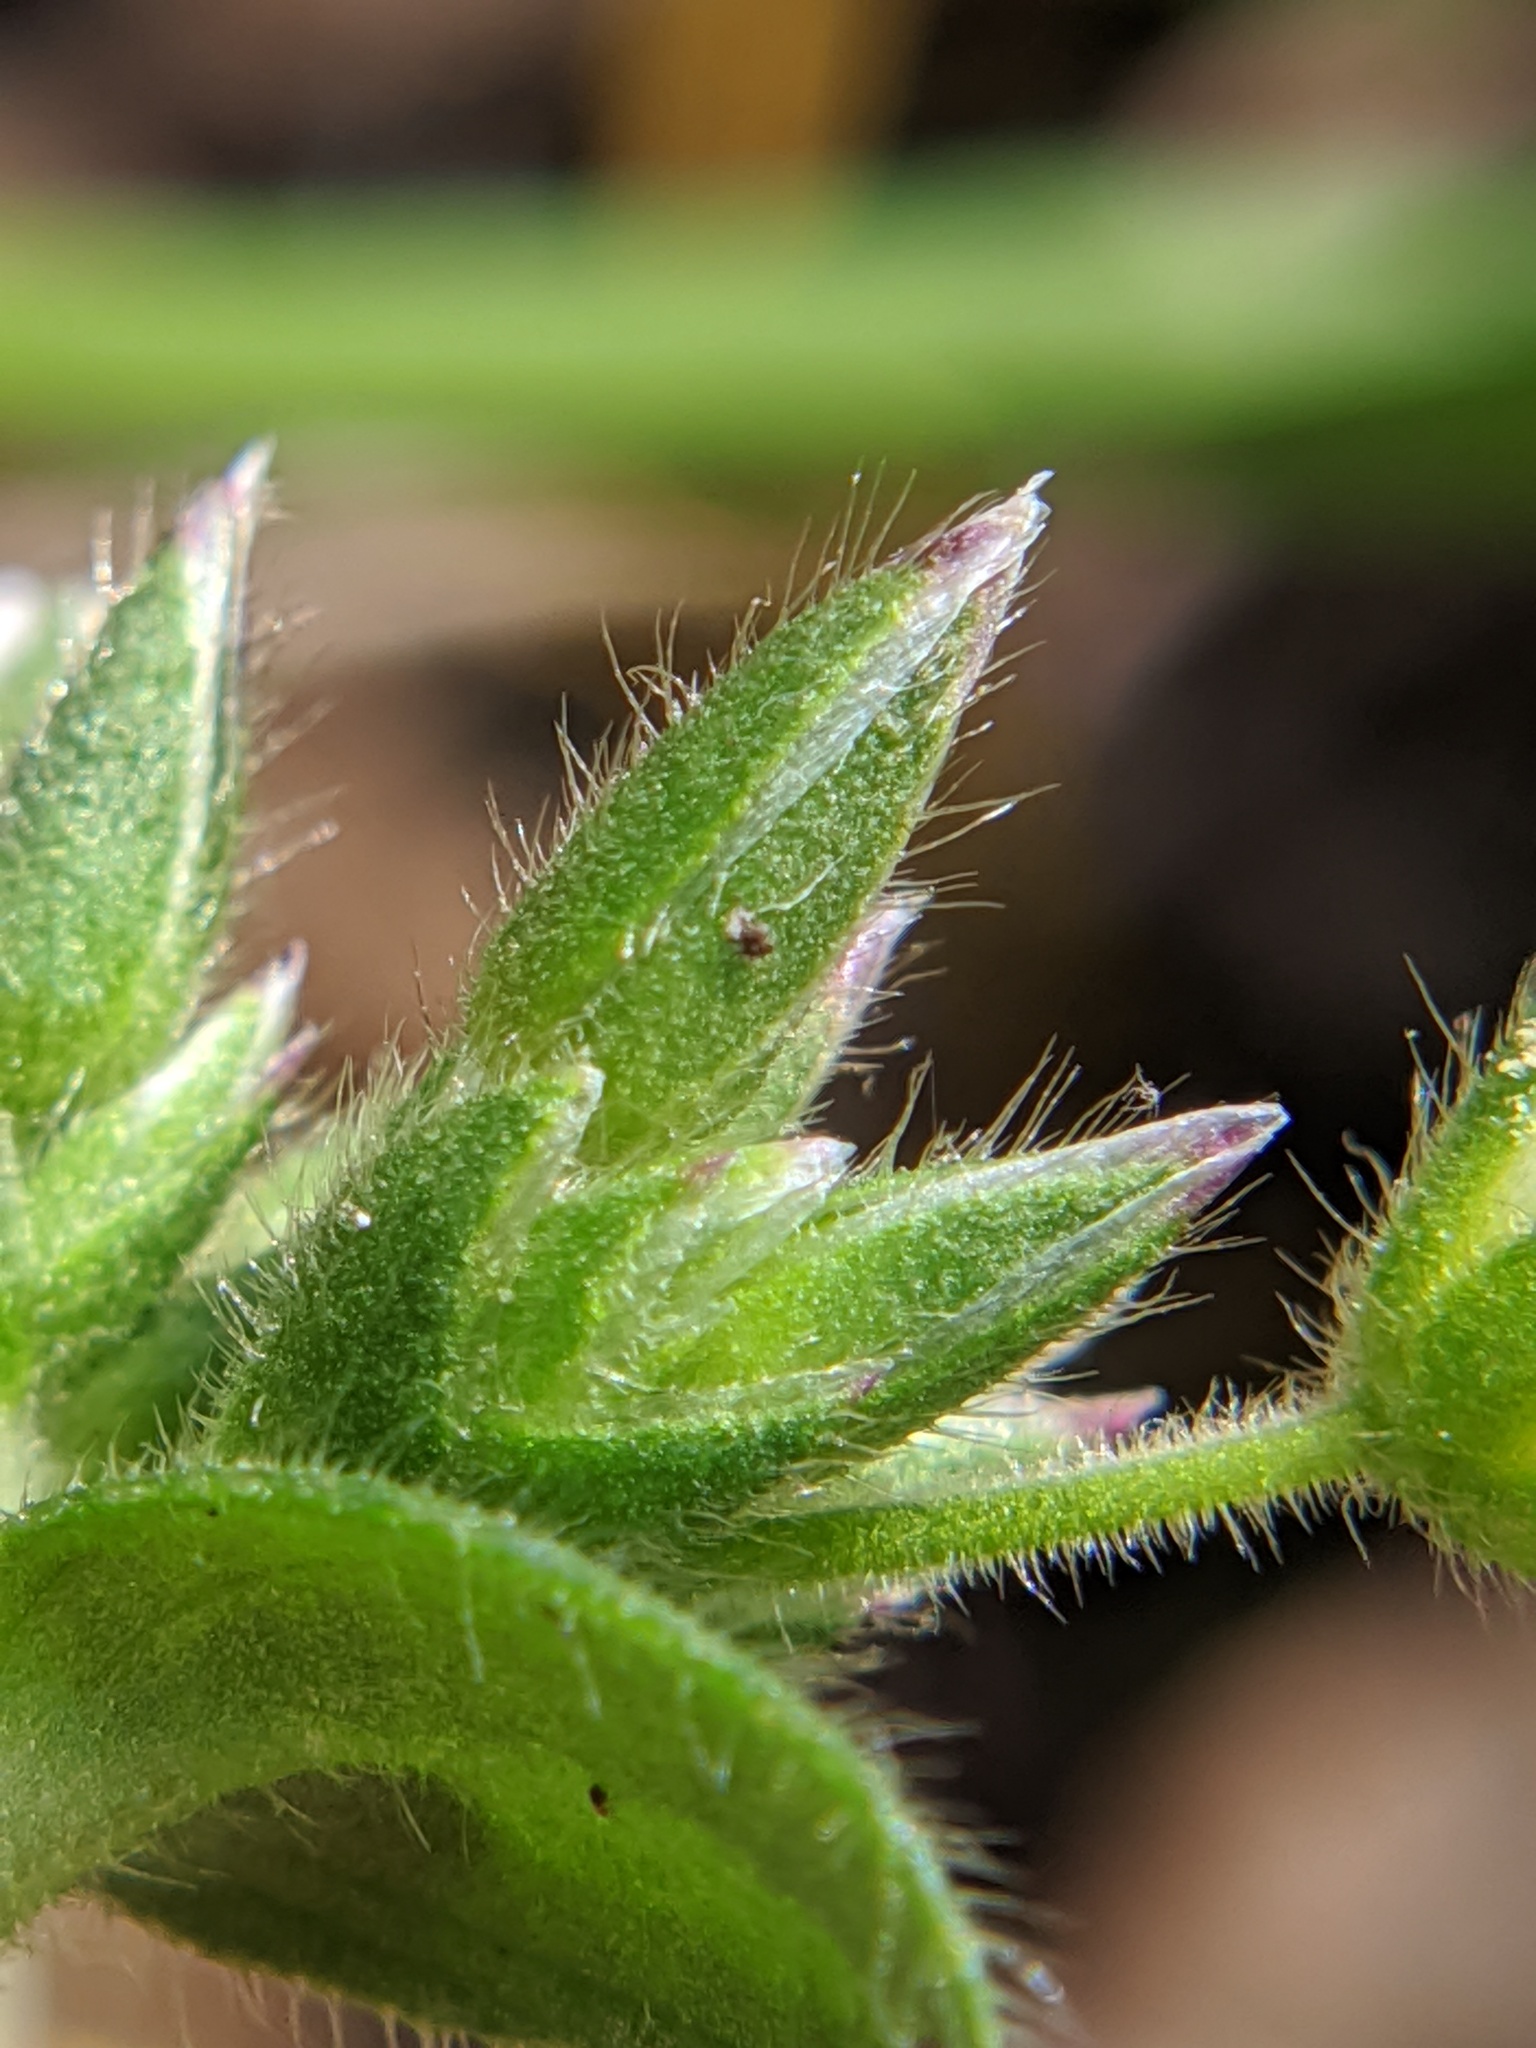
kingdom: Plantae
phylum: Tracheophyta
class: Magnoliopsida
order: Caryophyllales
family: Caryophyllaceae
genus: Cerastium
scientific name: Cerastium fontanum
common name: Common mouse-ear
